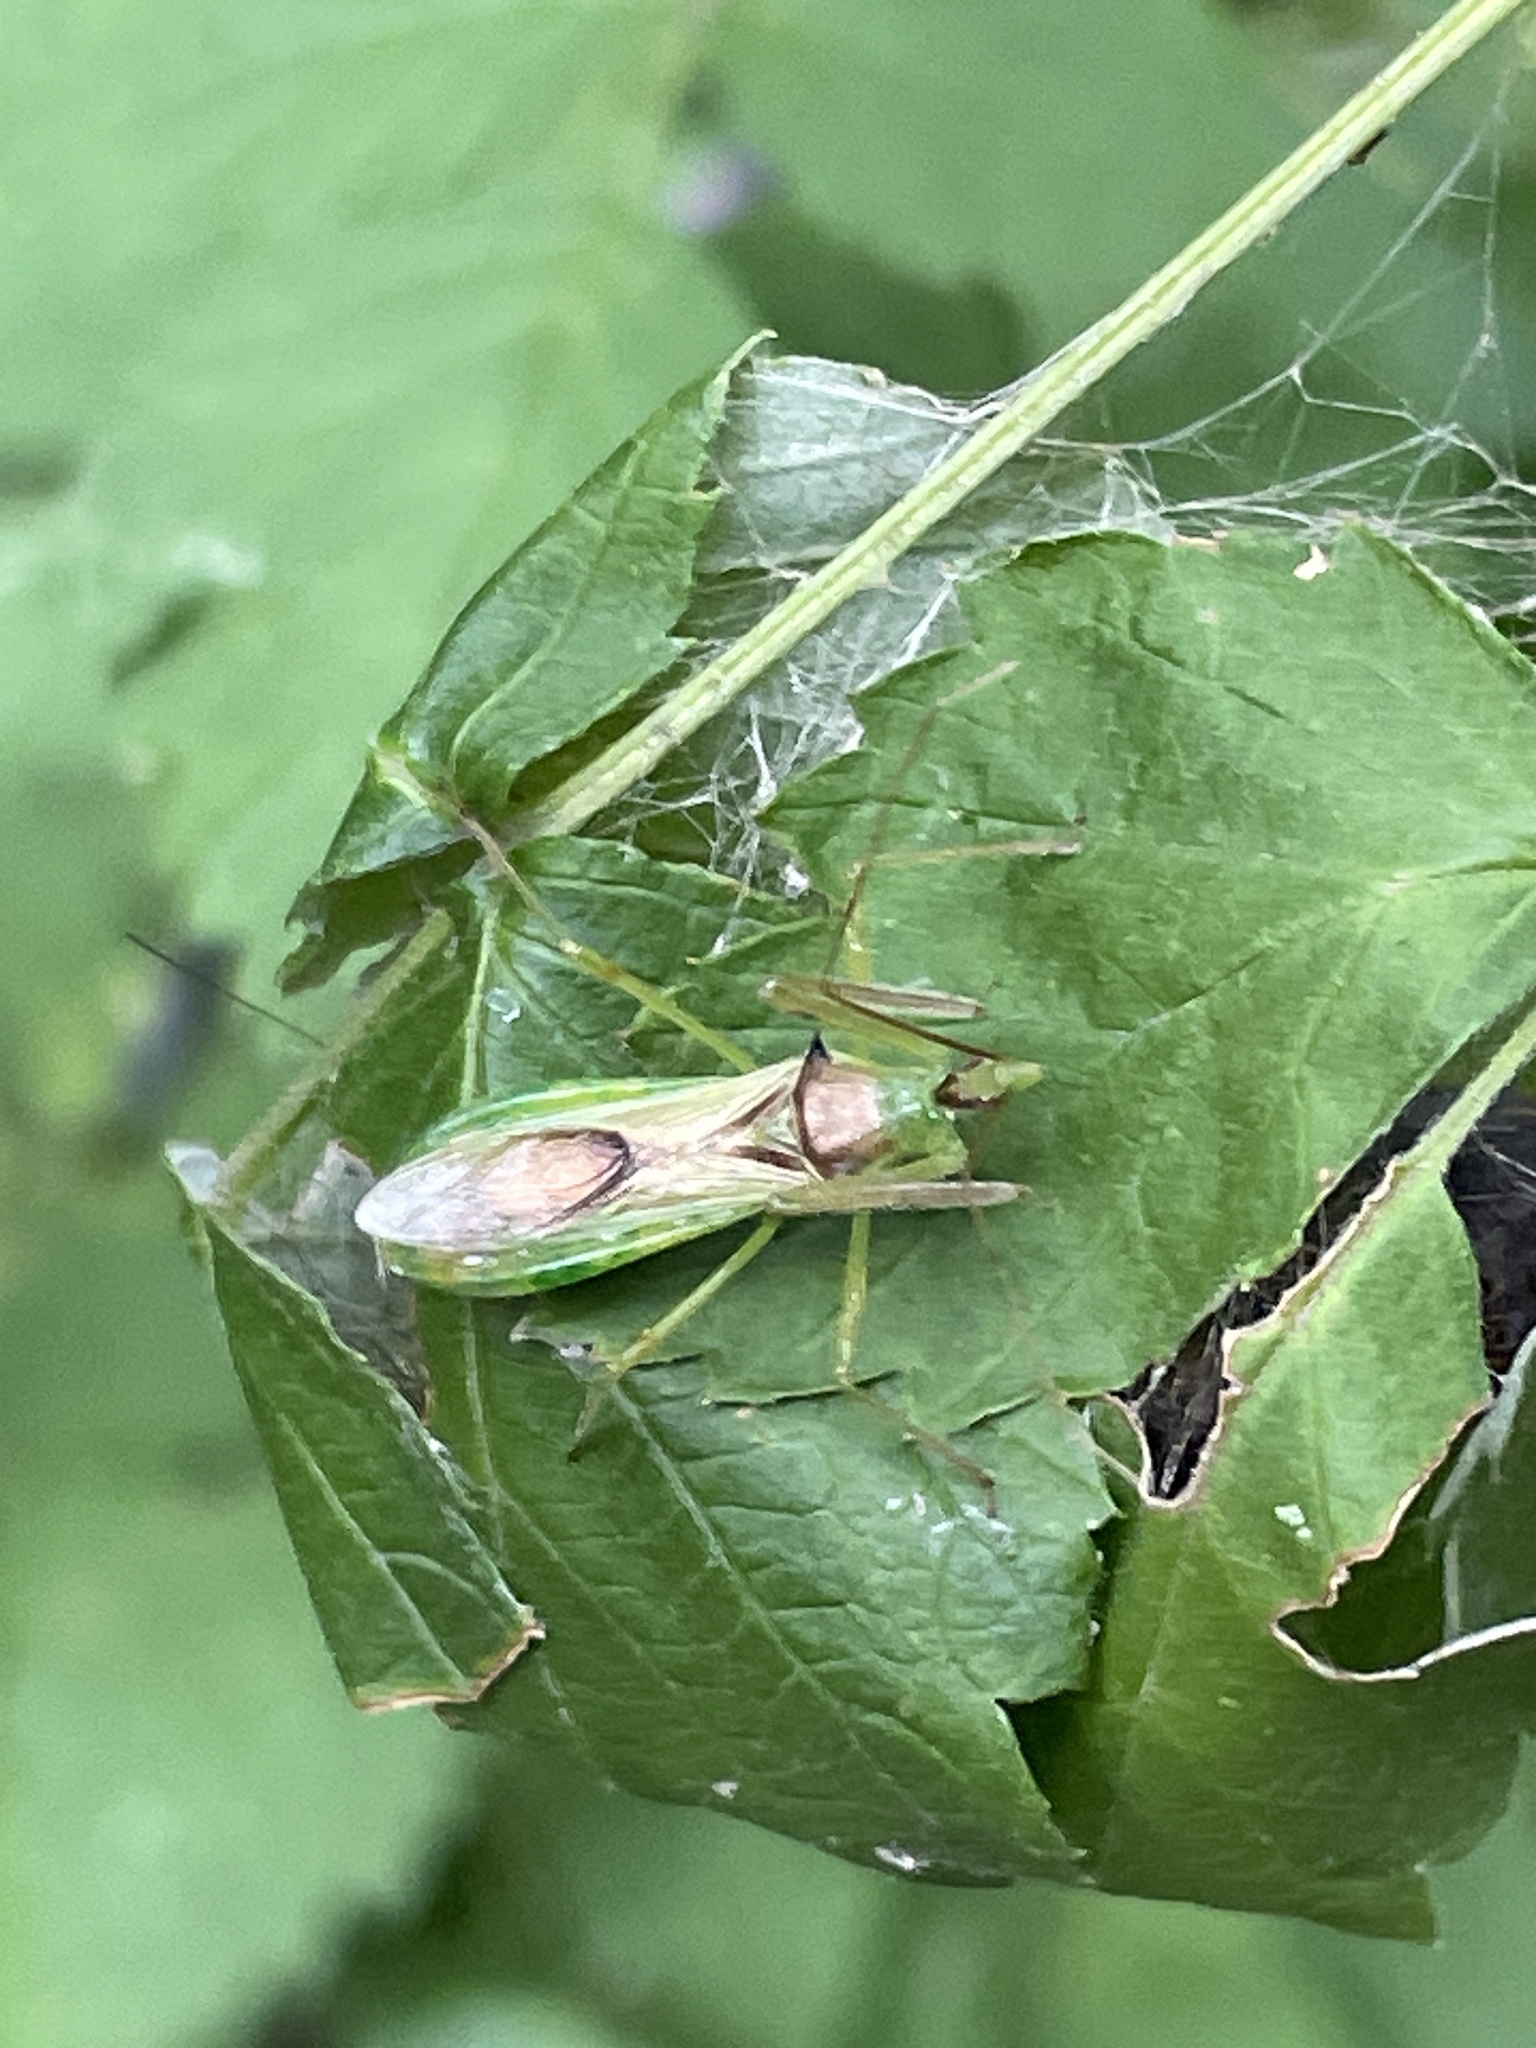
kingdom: Animalia
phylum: Arthropoda
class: Insecta
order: Hemiptera
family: Reduviidae
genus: Zelus
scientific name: Zelus luridus
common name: Pale green assassin bug
